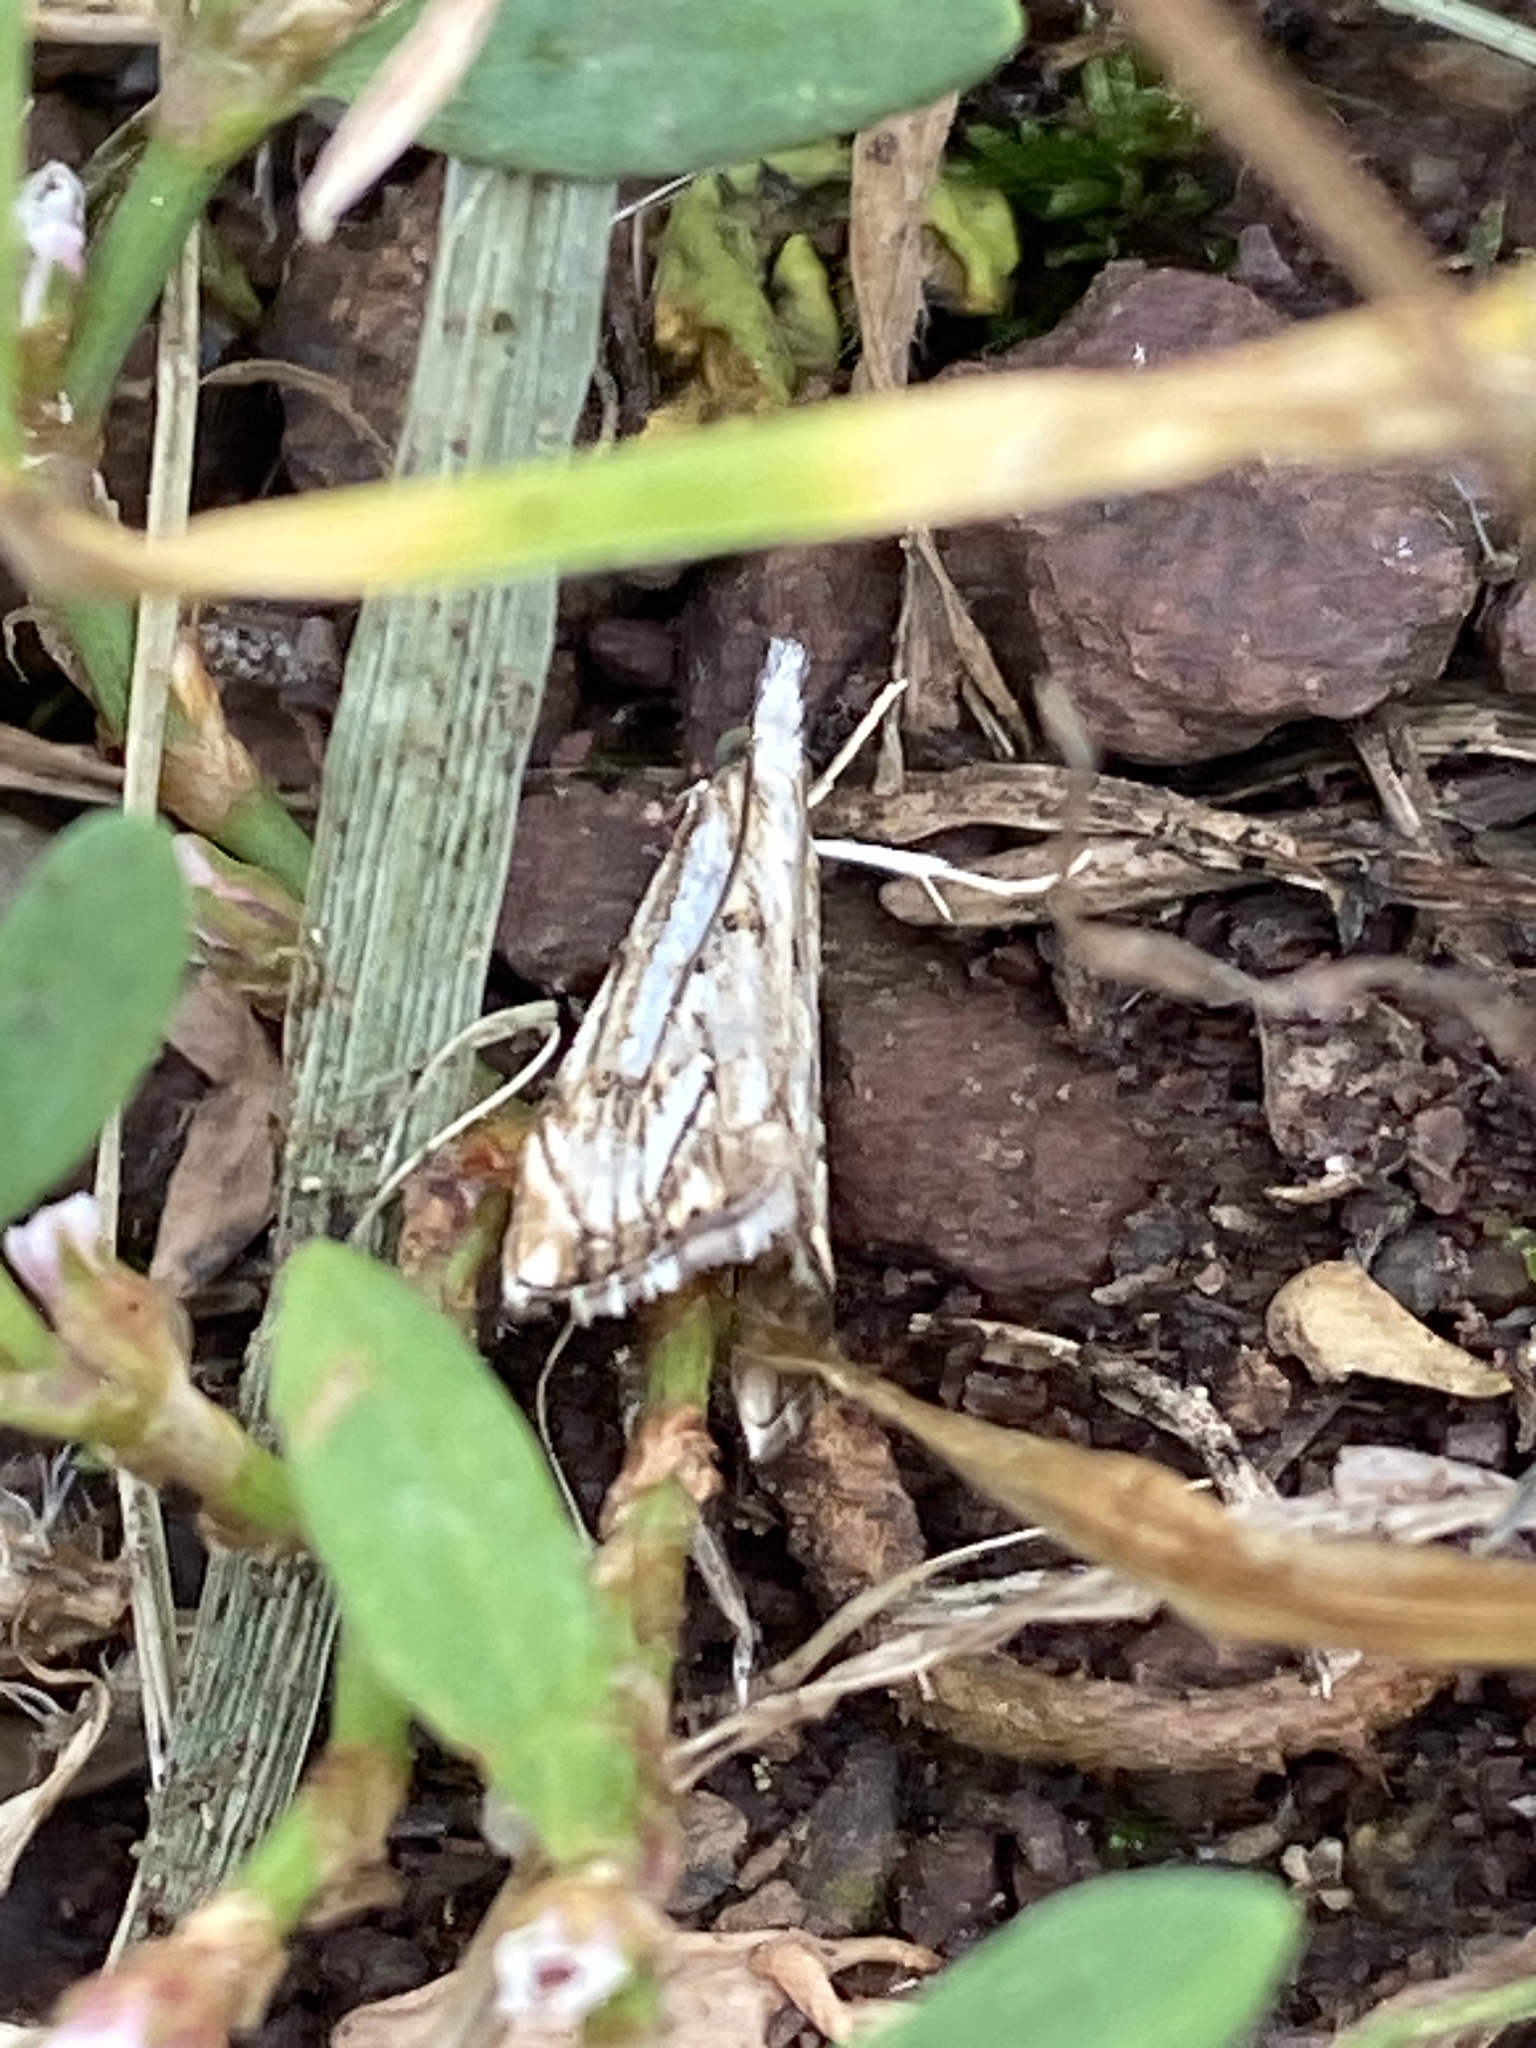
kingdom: Animalia
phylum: Arthropoda
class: Insecta
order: Lepidoptera
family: Crambidae
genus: Catoptria
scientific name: Catoptria falsella
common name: Chequered grass-veneer
